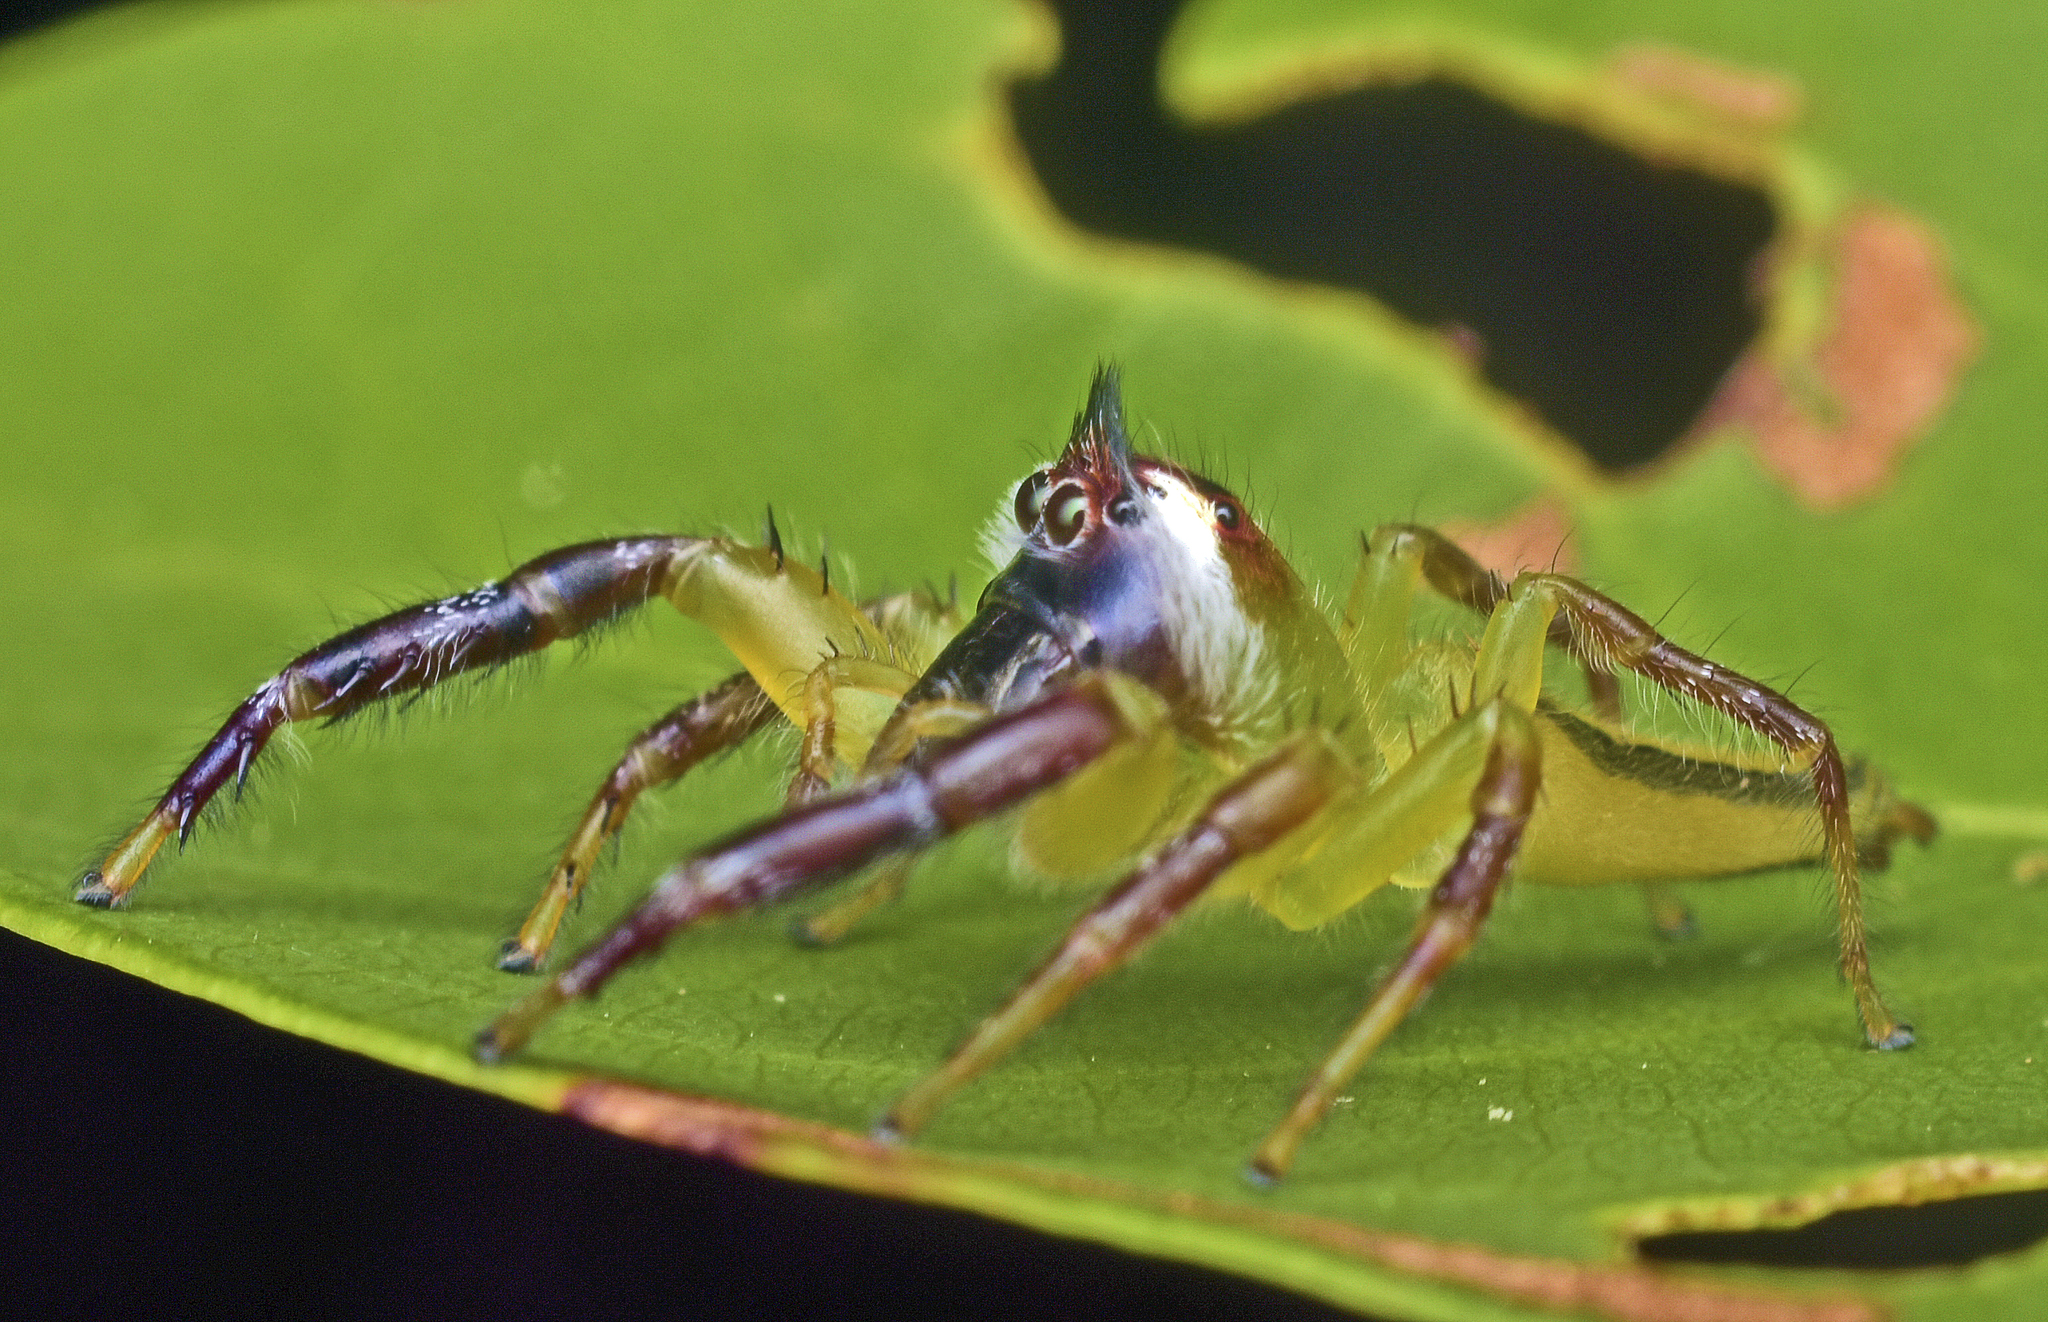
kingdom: Animalia
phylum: Arthropoda
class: Arachnida
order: Araneae
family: Salticidae
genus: Mopsus
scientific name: Mopsus mormon
